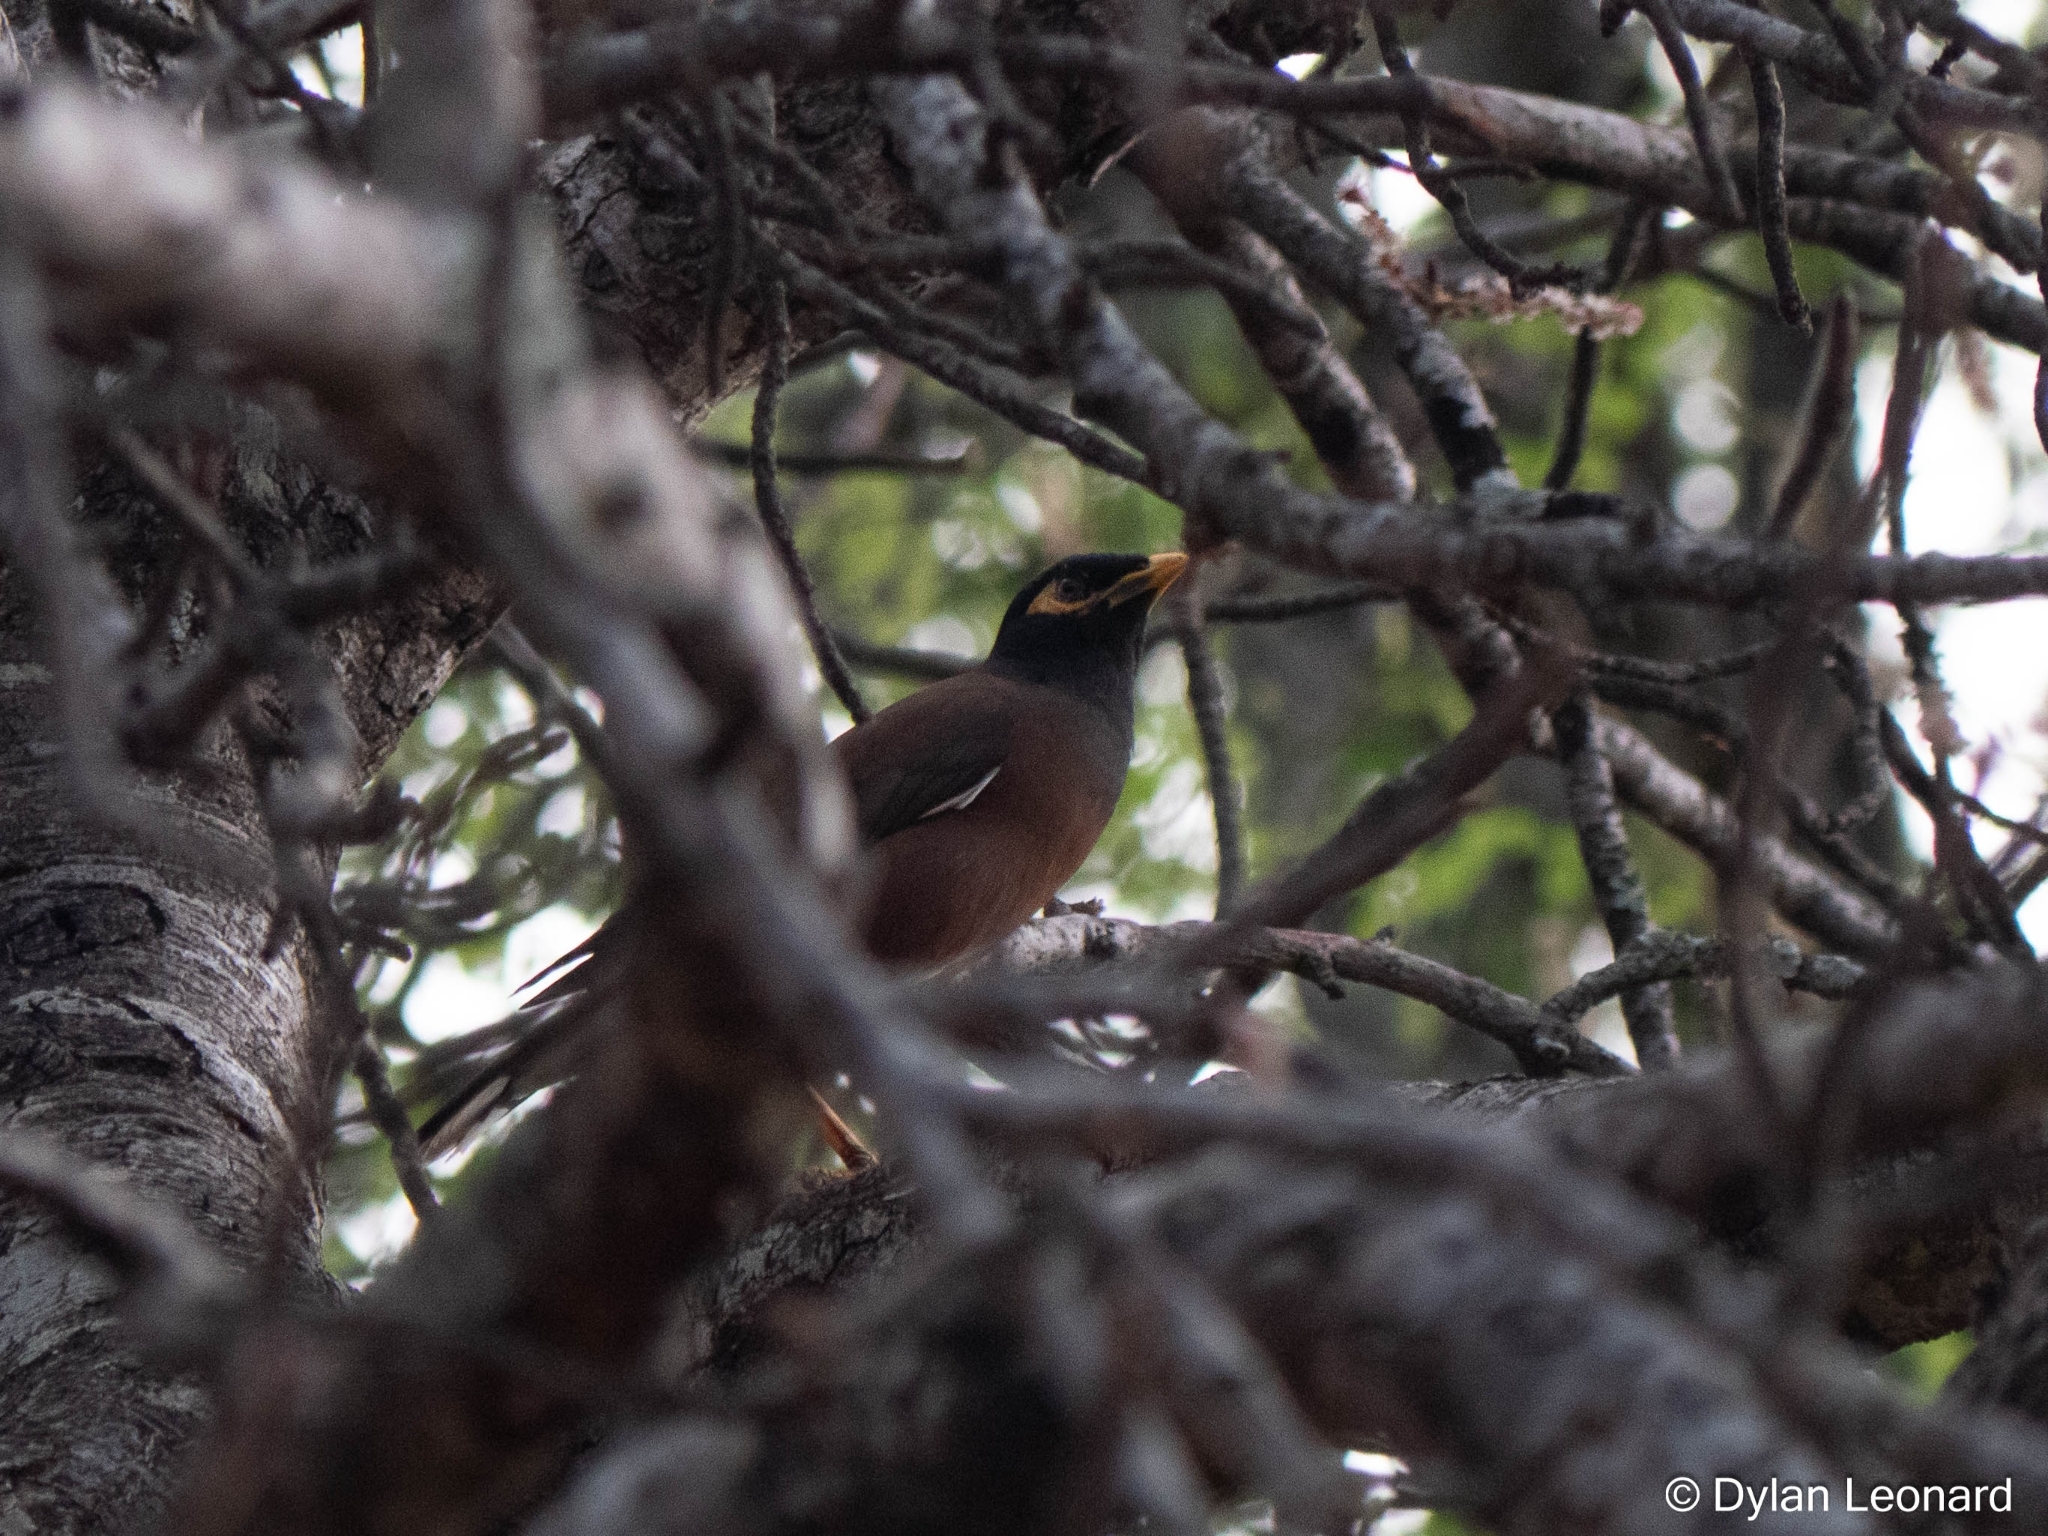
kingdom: Animalia
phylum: Chordata
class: Aves
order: Passeriformes
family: Sturnidae
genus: Acridotheres
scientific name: Acridotheres tristis
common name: Common myna
